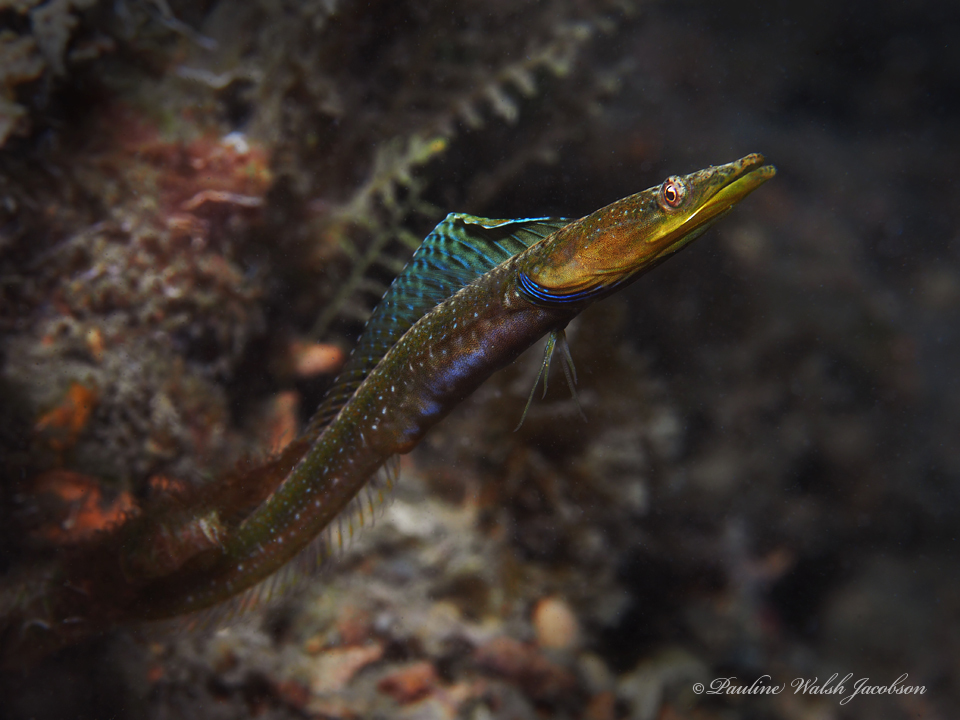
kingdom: Animalia
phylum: Chordata
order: Perciformes
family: Chaenopsidae
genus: Chaenopsis
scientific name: Chaenopsis ocellata
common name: Bluethroat pikeblenny
